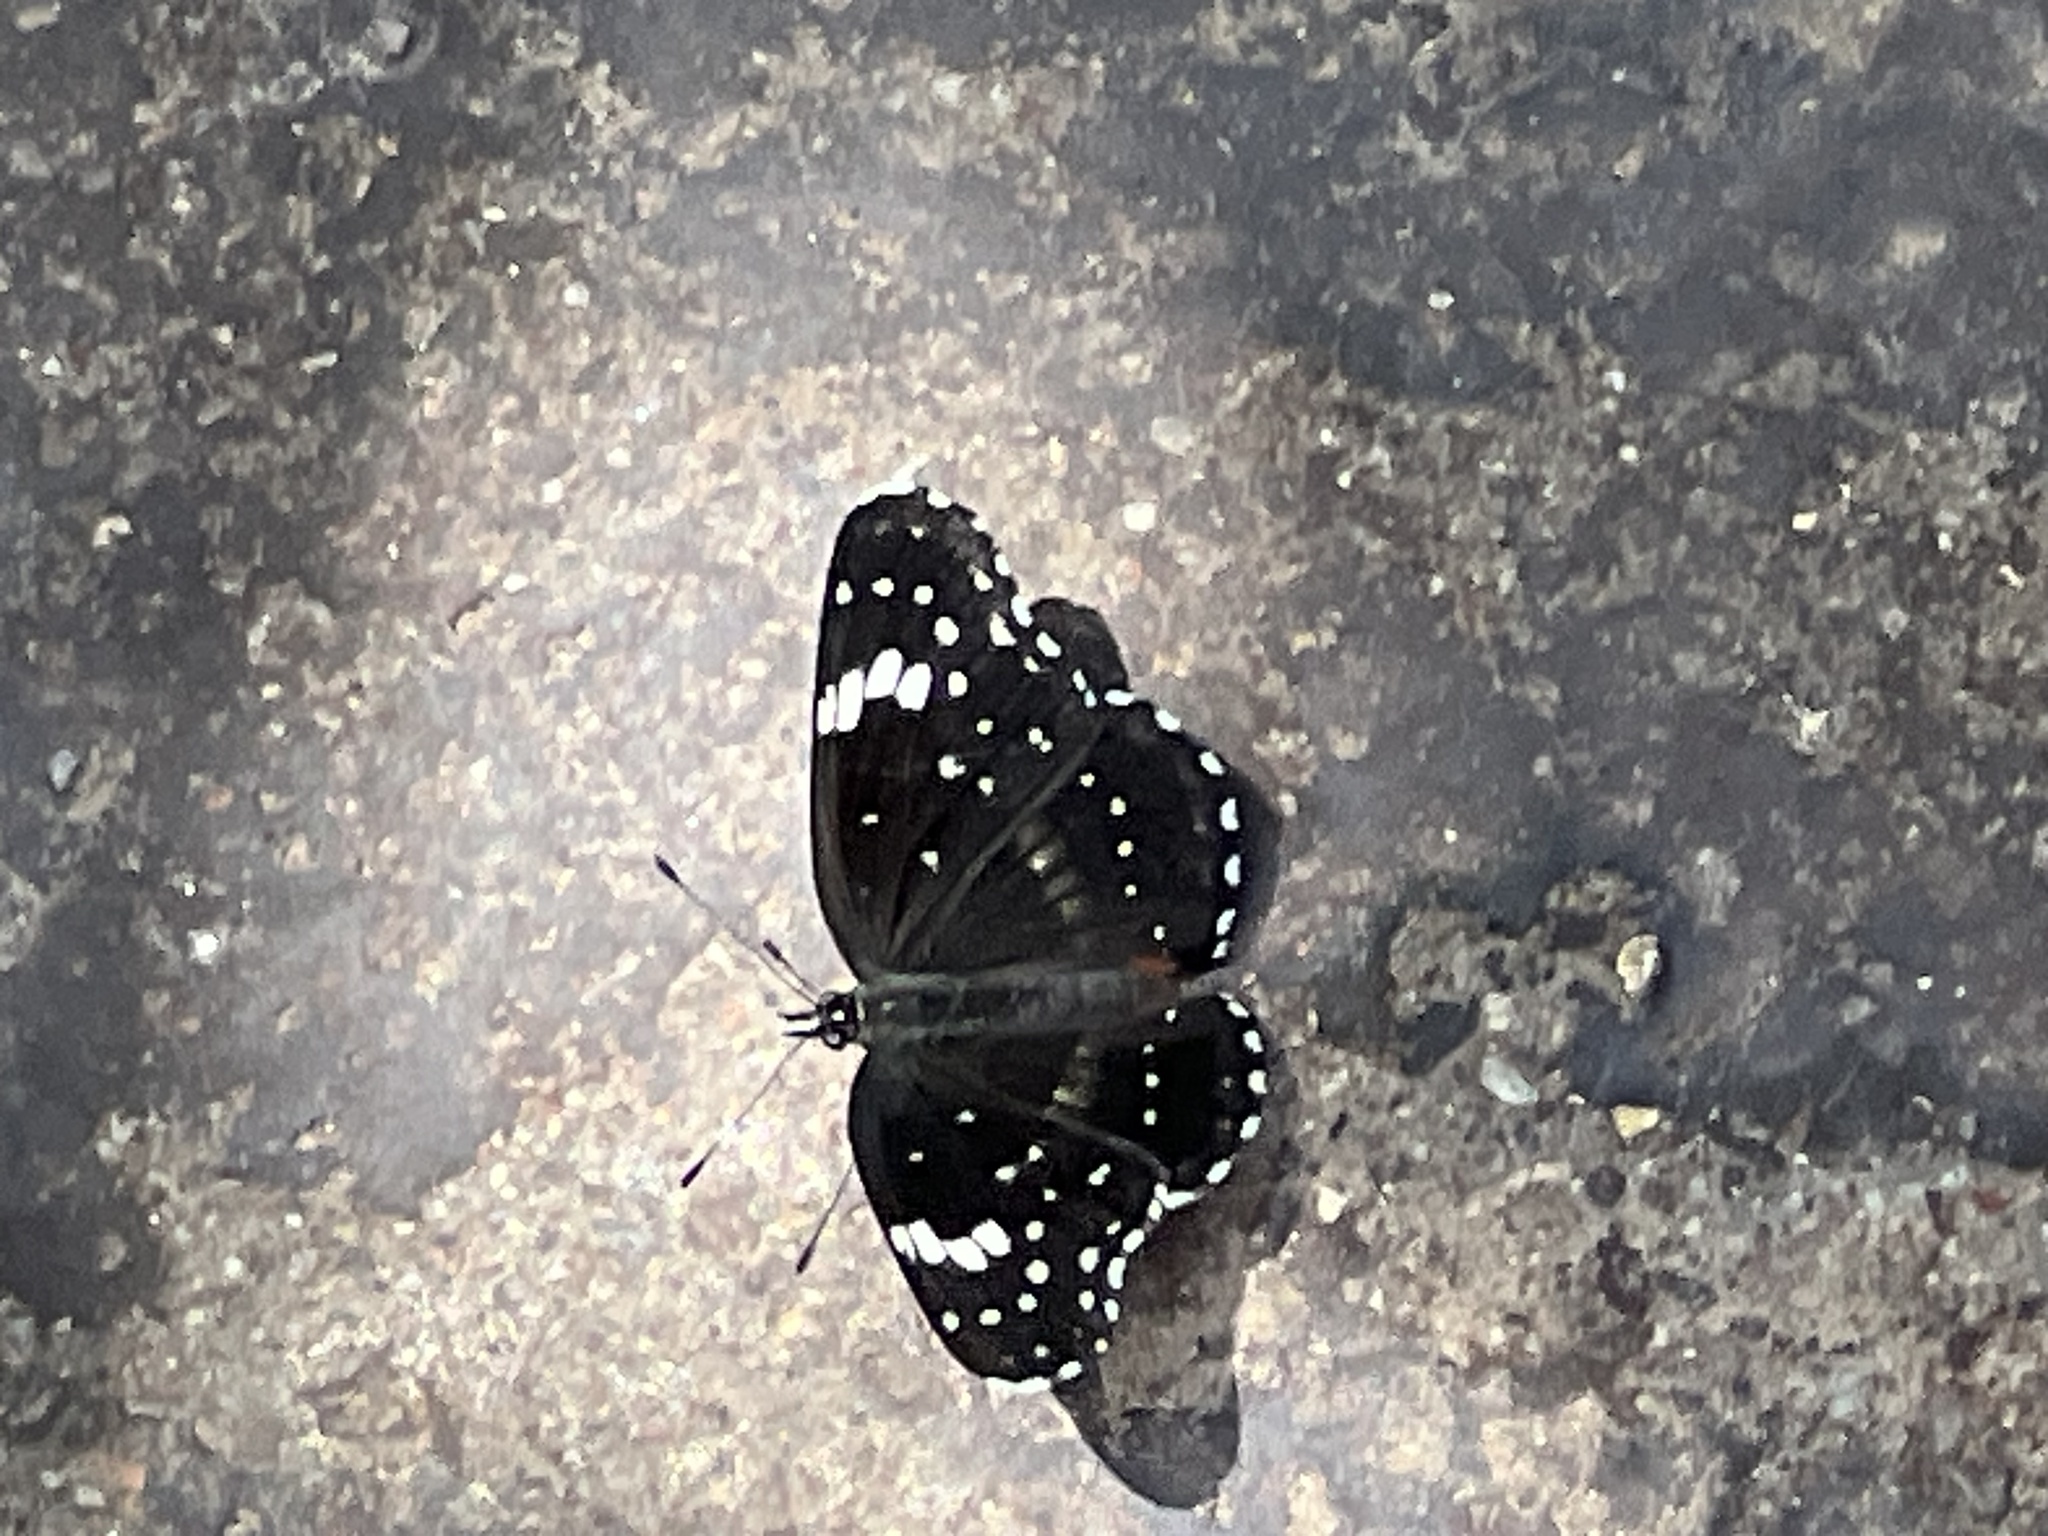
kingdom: Animalia
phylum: Arthropoda
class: Insecta
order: Lepidoptera
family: Nymphalidae
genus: Chlosyne
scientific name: Chlosyne lacinia
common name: Bordered patch
